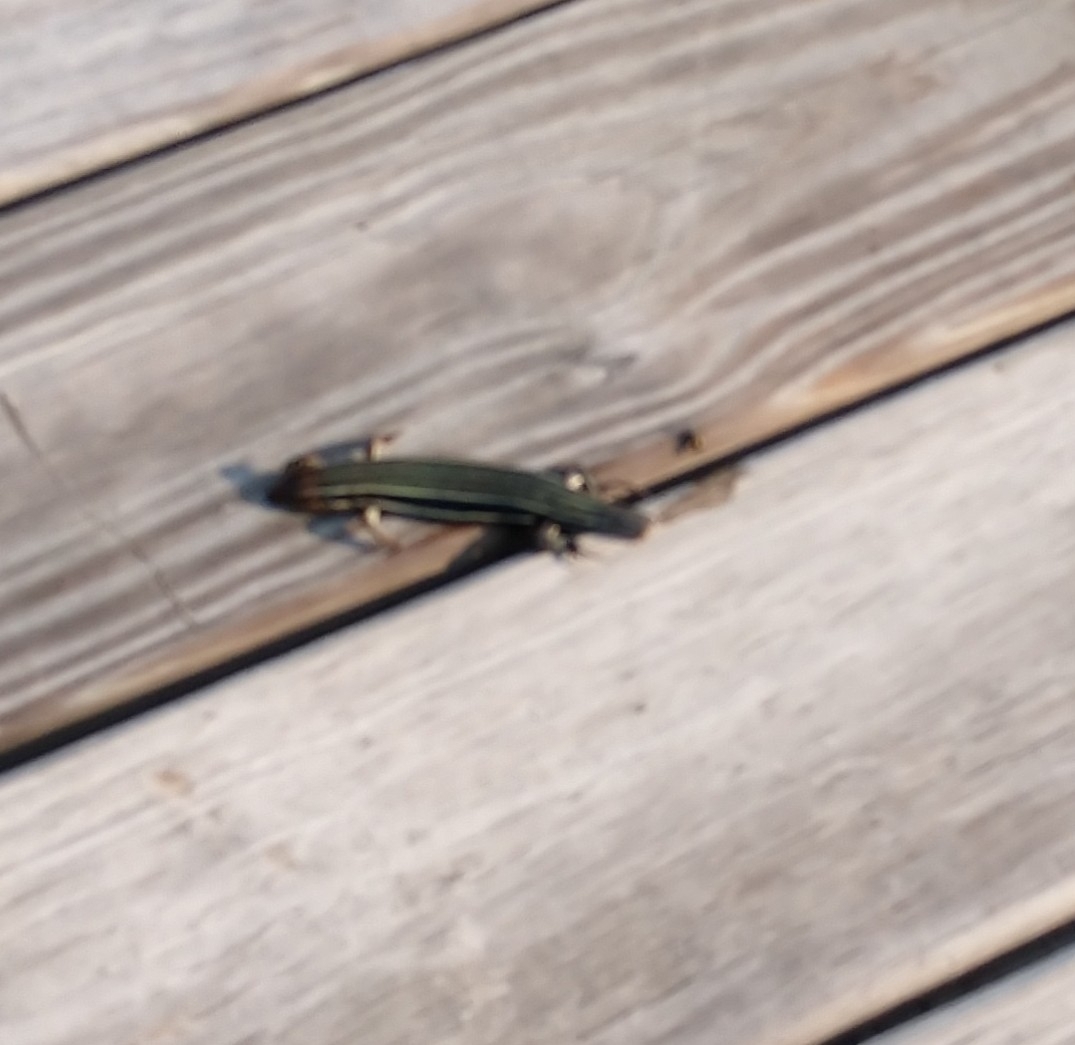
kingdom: Animalia
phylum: Chordata
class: Squamata
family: Scincidae
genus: Plestiodon
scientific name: Plestiodon inexpectatus
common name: Southeastern five-lined skink
